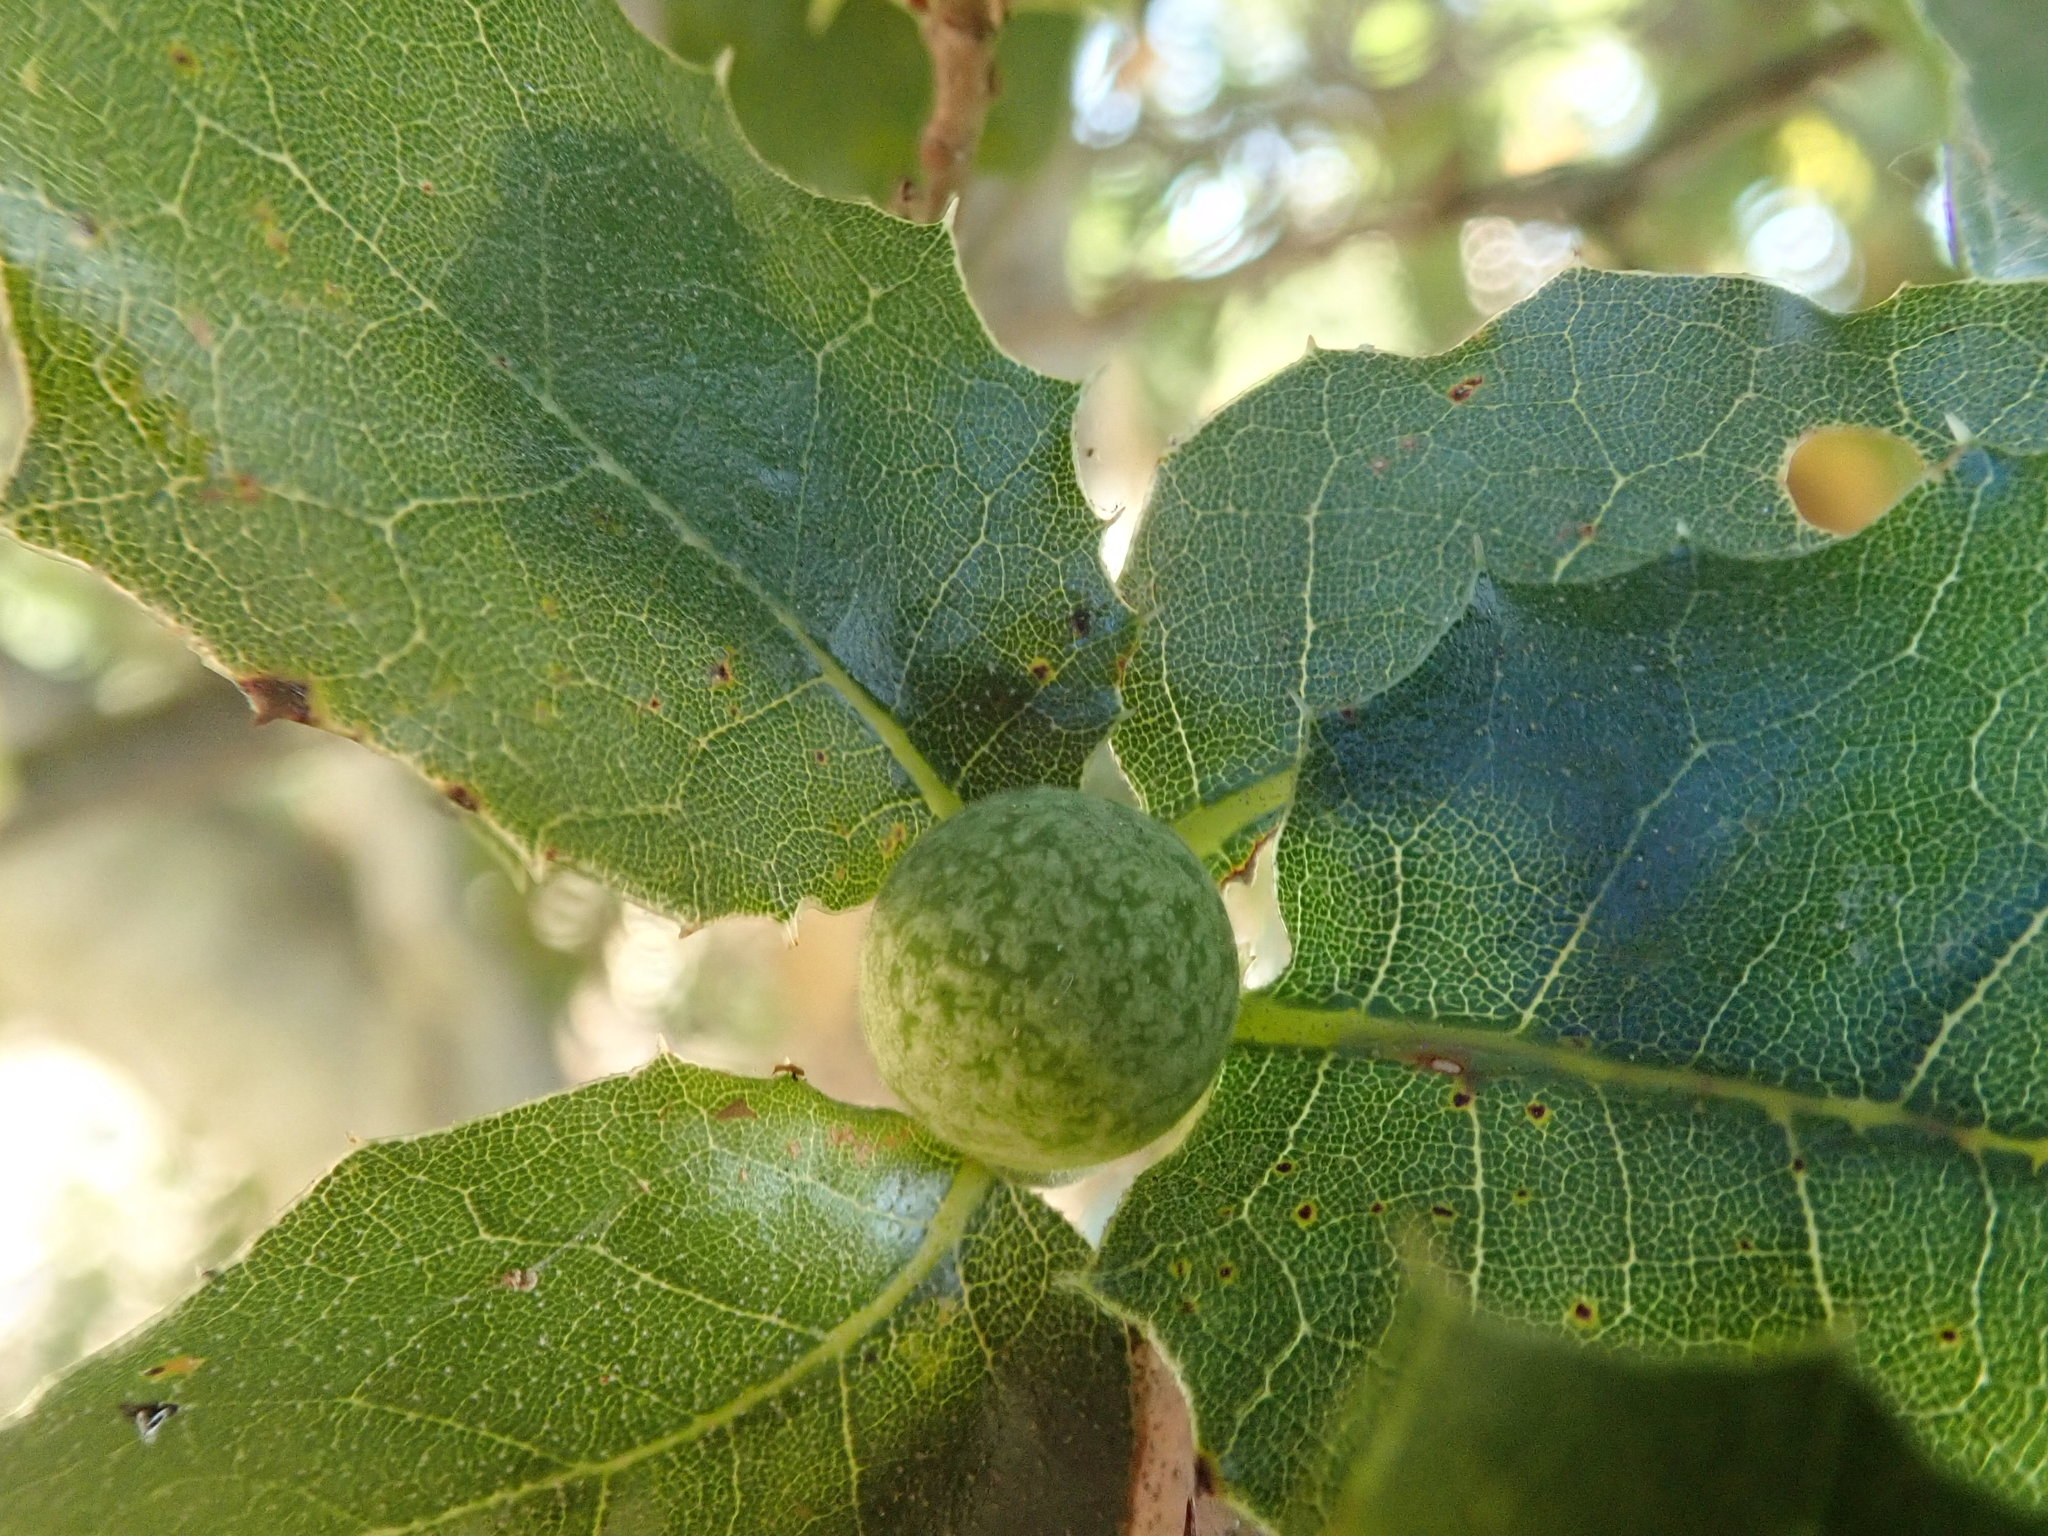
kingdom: Animalia
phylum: Arthropoda
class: Insecta
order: Hymenoptera
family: Cynipidae
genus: Callirhytis
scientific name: Callirhytis
